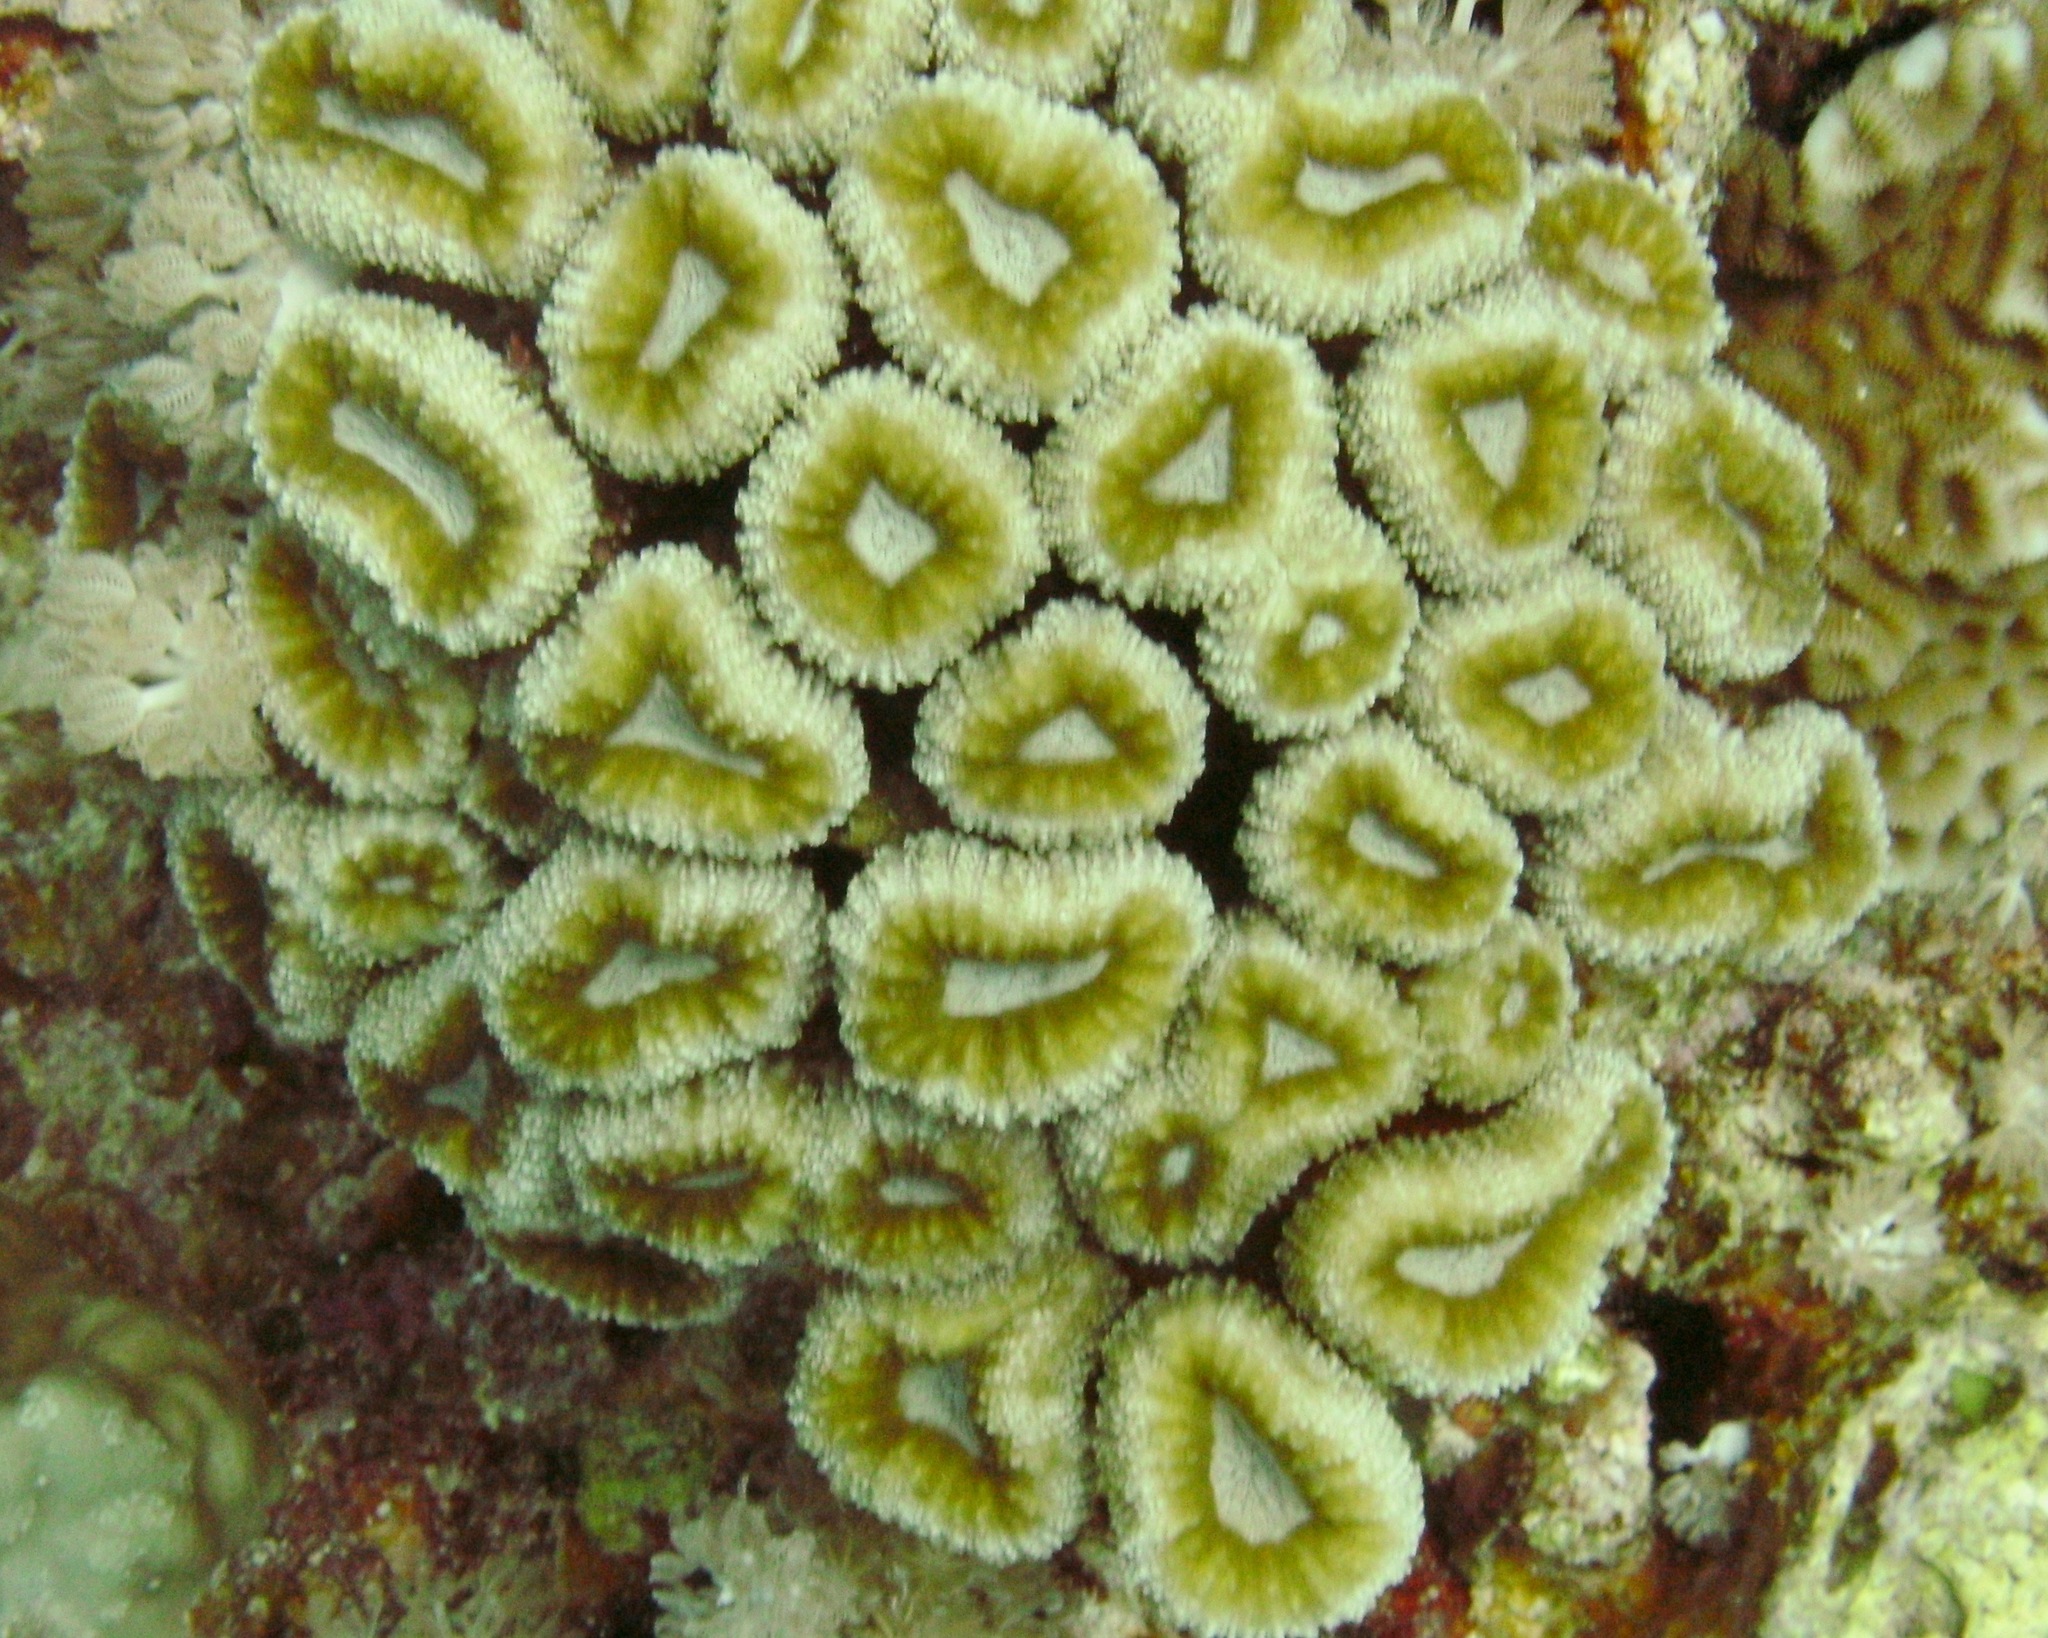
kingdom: Animalia
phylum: Cnidaria
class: Anthozoa
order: Scleractinia
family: Lobophylliidae
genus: Lobophyllia
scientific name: Lobophyllia corymbosa
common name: Lobed cactus coral
